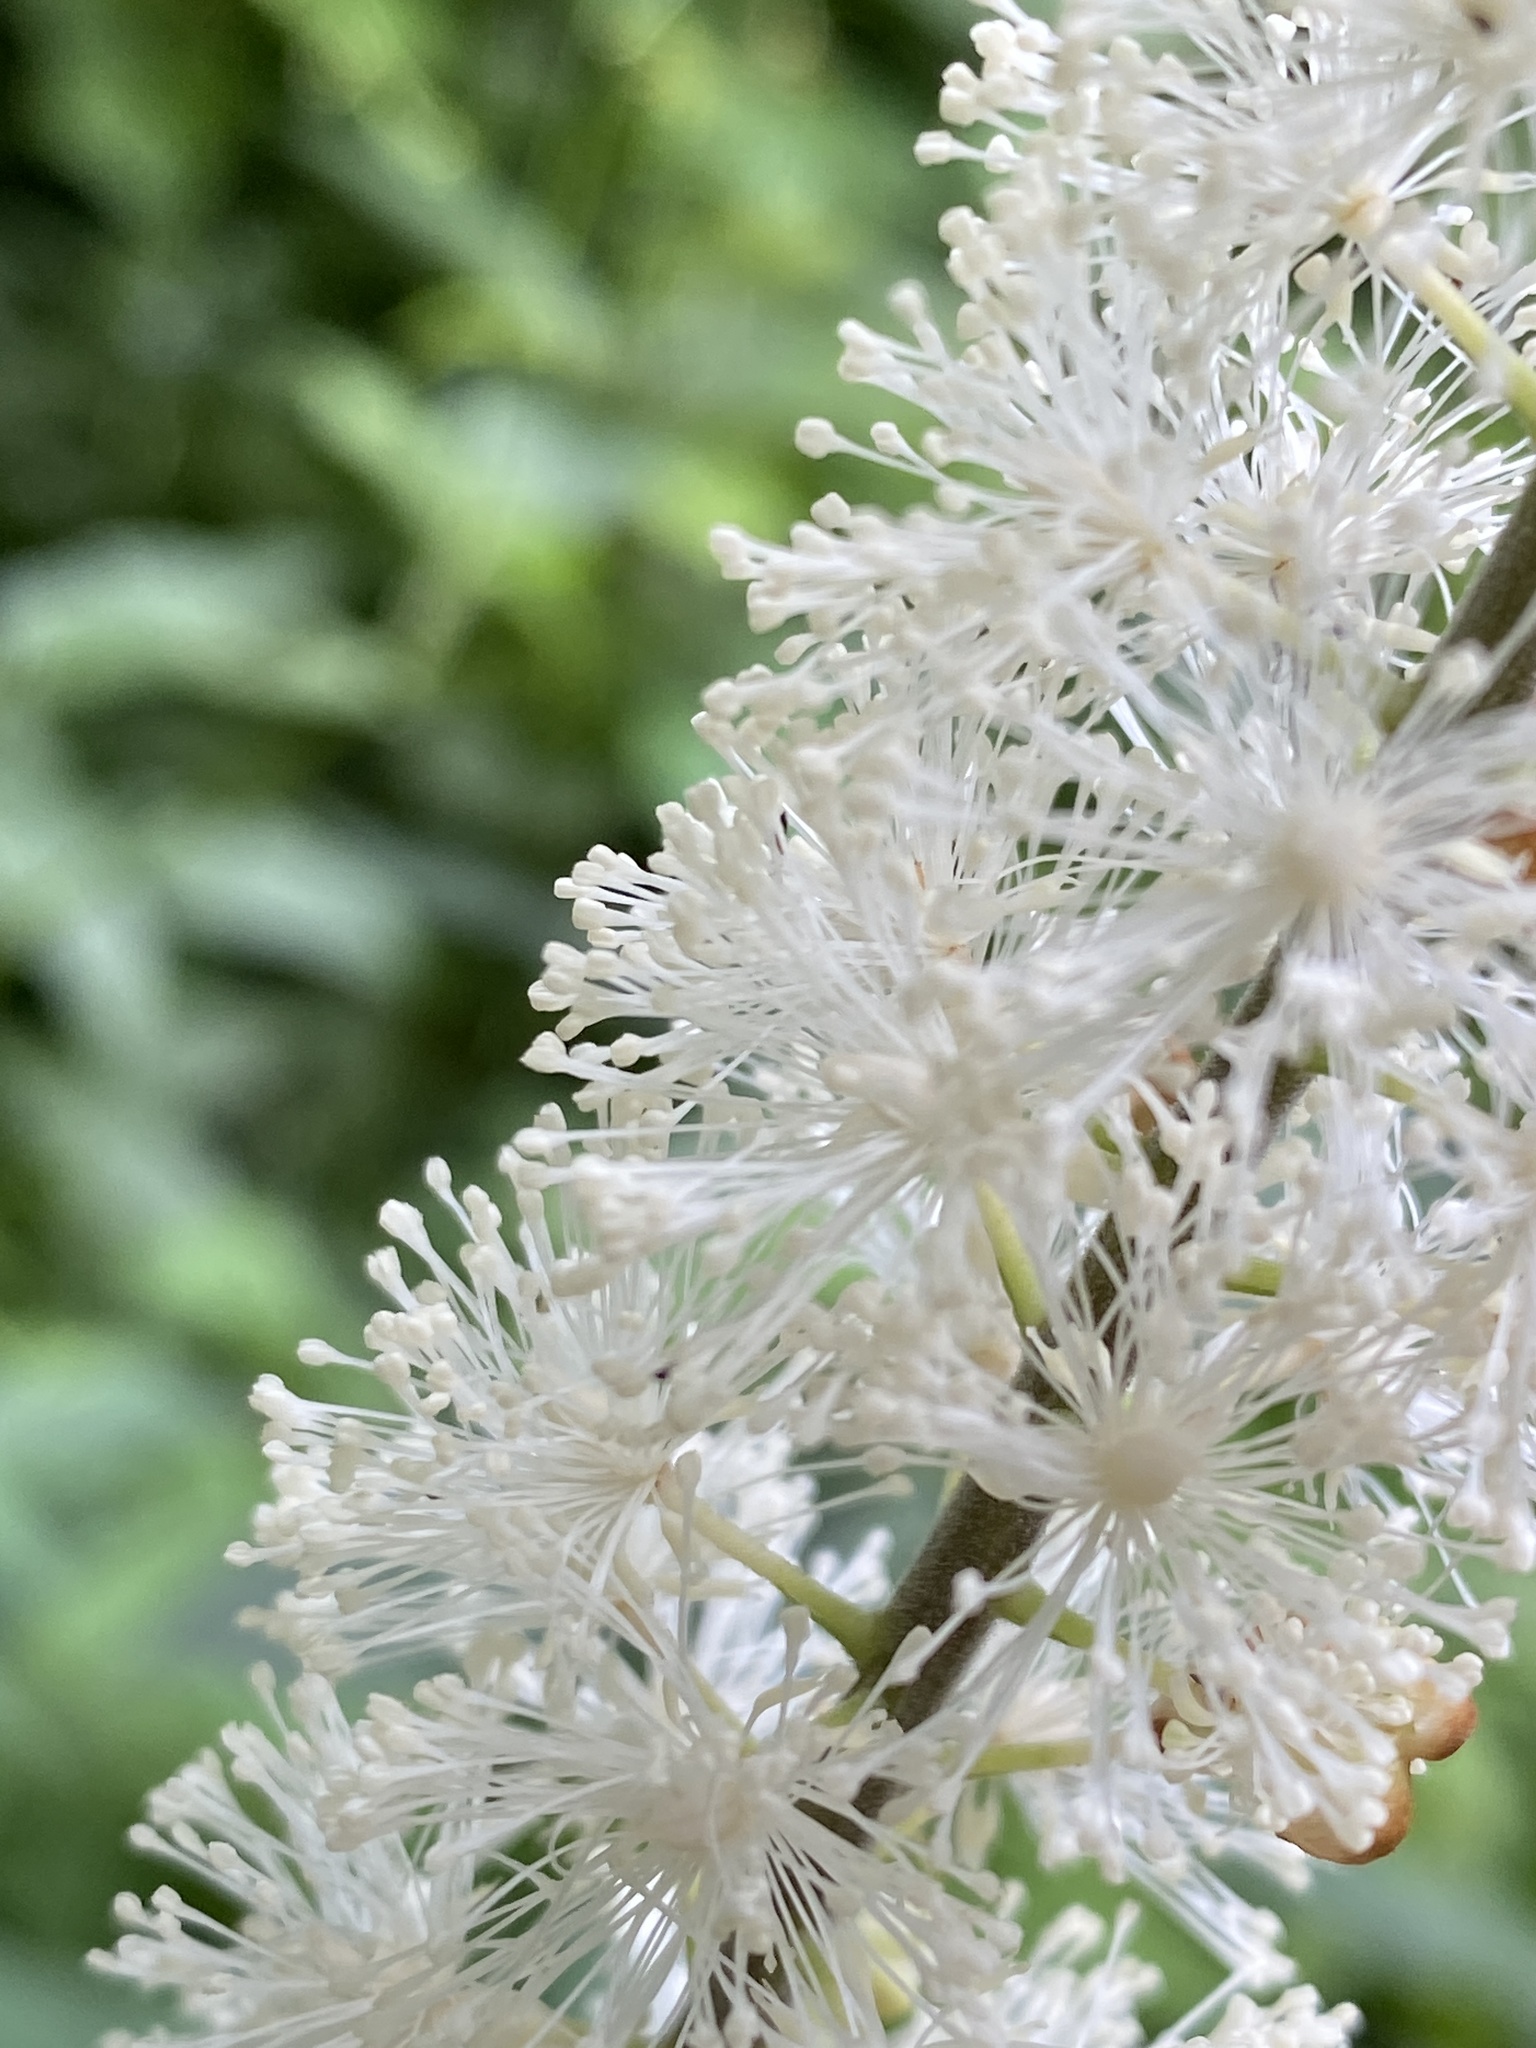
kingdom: Plantae
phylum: Tracheophyta
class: Magnoliopsida
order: Ranunculales
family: Ranunculaceae
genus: Actaea
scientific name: Actaea racemosa
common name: Black cohosh
